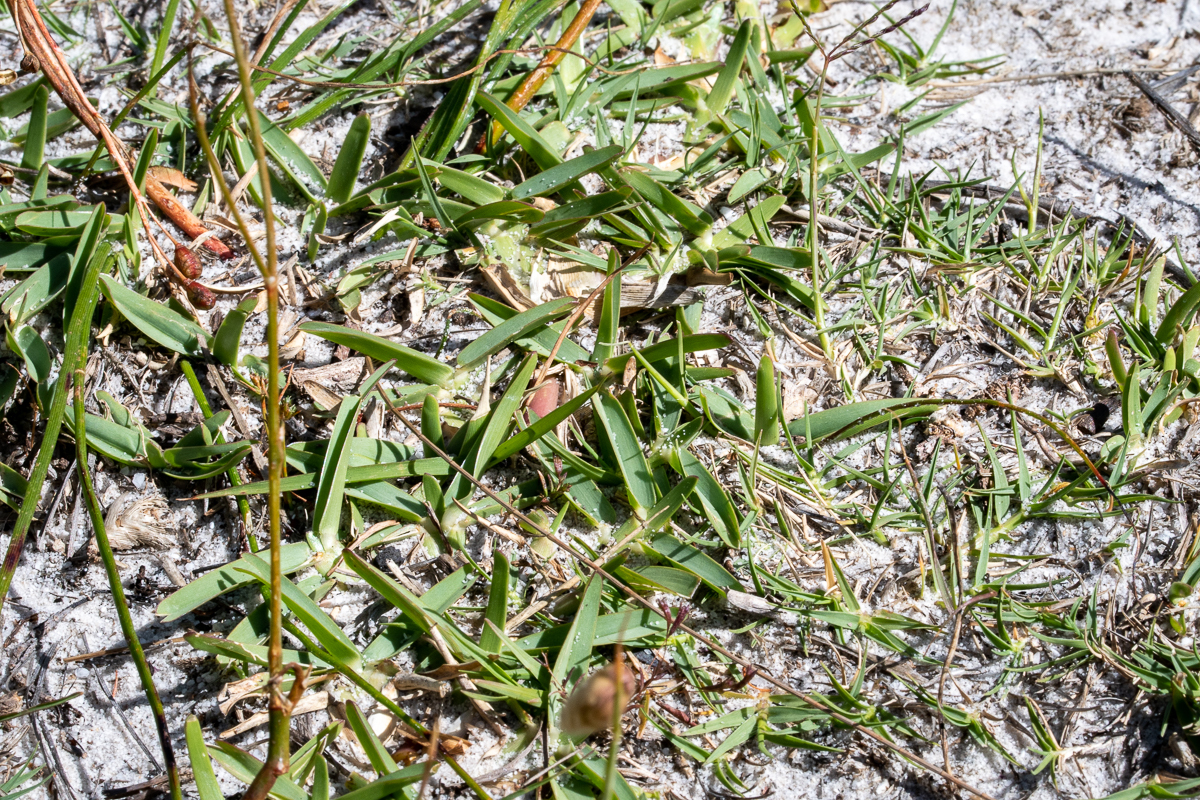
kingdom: Plantae
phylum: Tracheophyta
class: Liliopsida
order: Poales
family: Poaceae
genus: Stenotaphrum
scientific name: Stenotaphrum secundatum
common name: St. augustine grass
